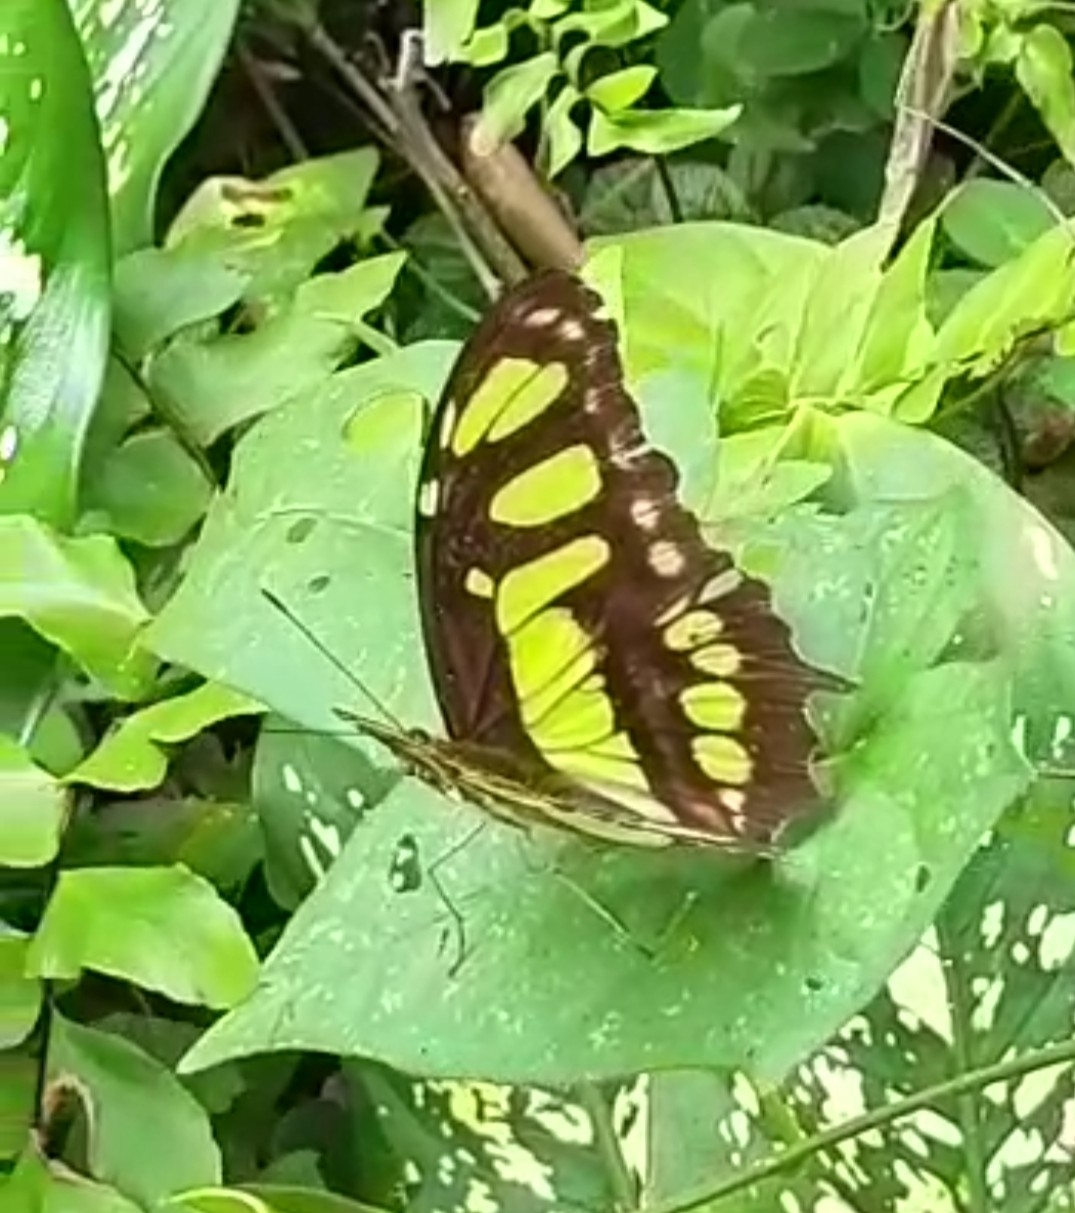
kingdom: Animalia
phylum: Arthropoda
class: Insecta
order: Lepidoptera
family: Nymphalidae
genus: Siproeta
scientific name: Siproeta stelenes
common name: Malachite
